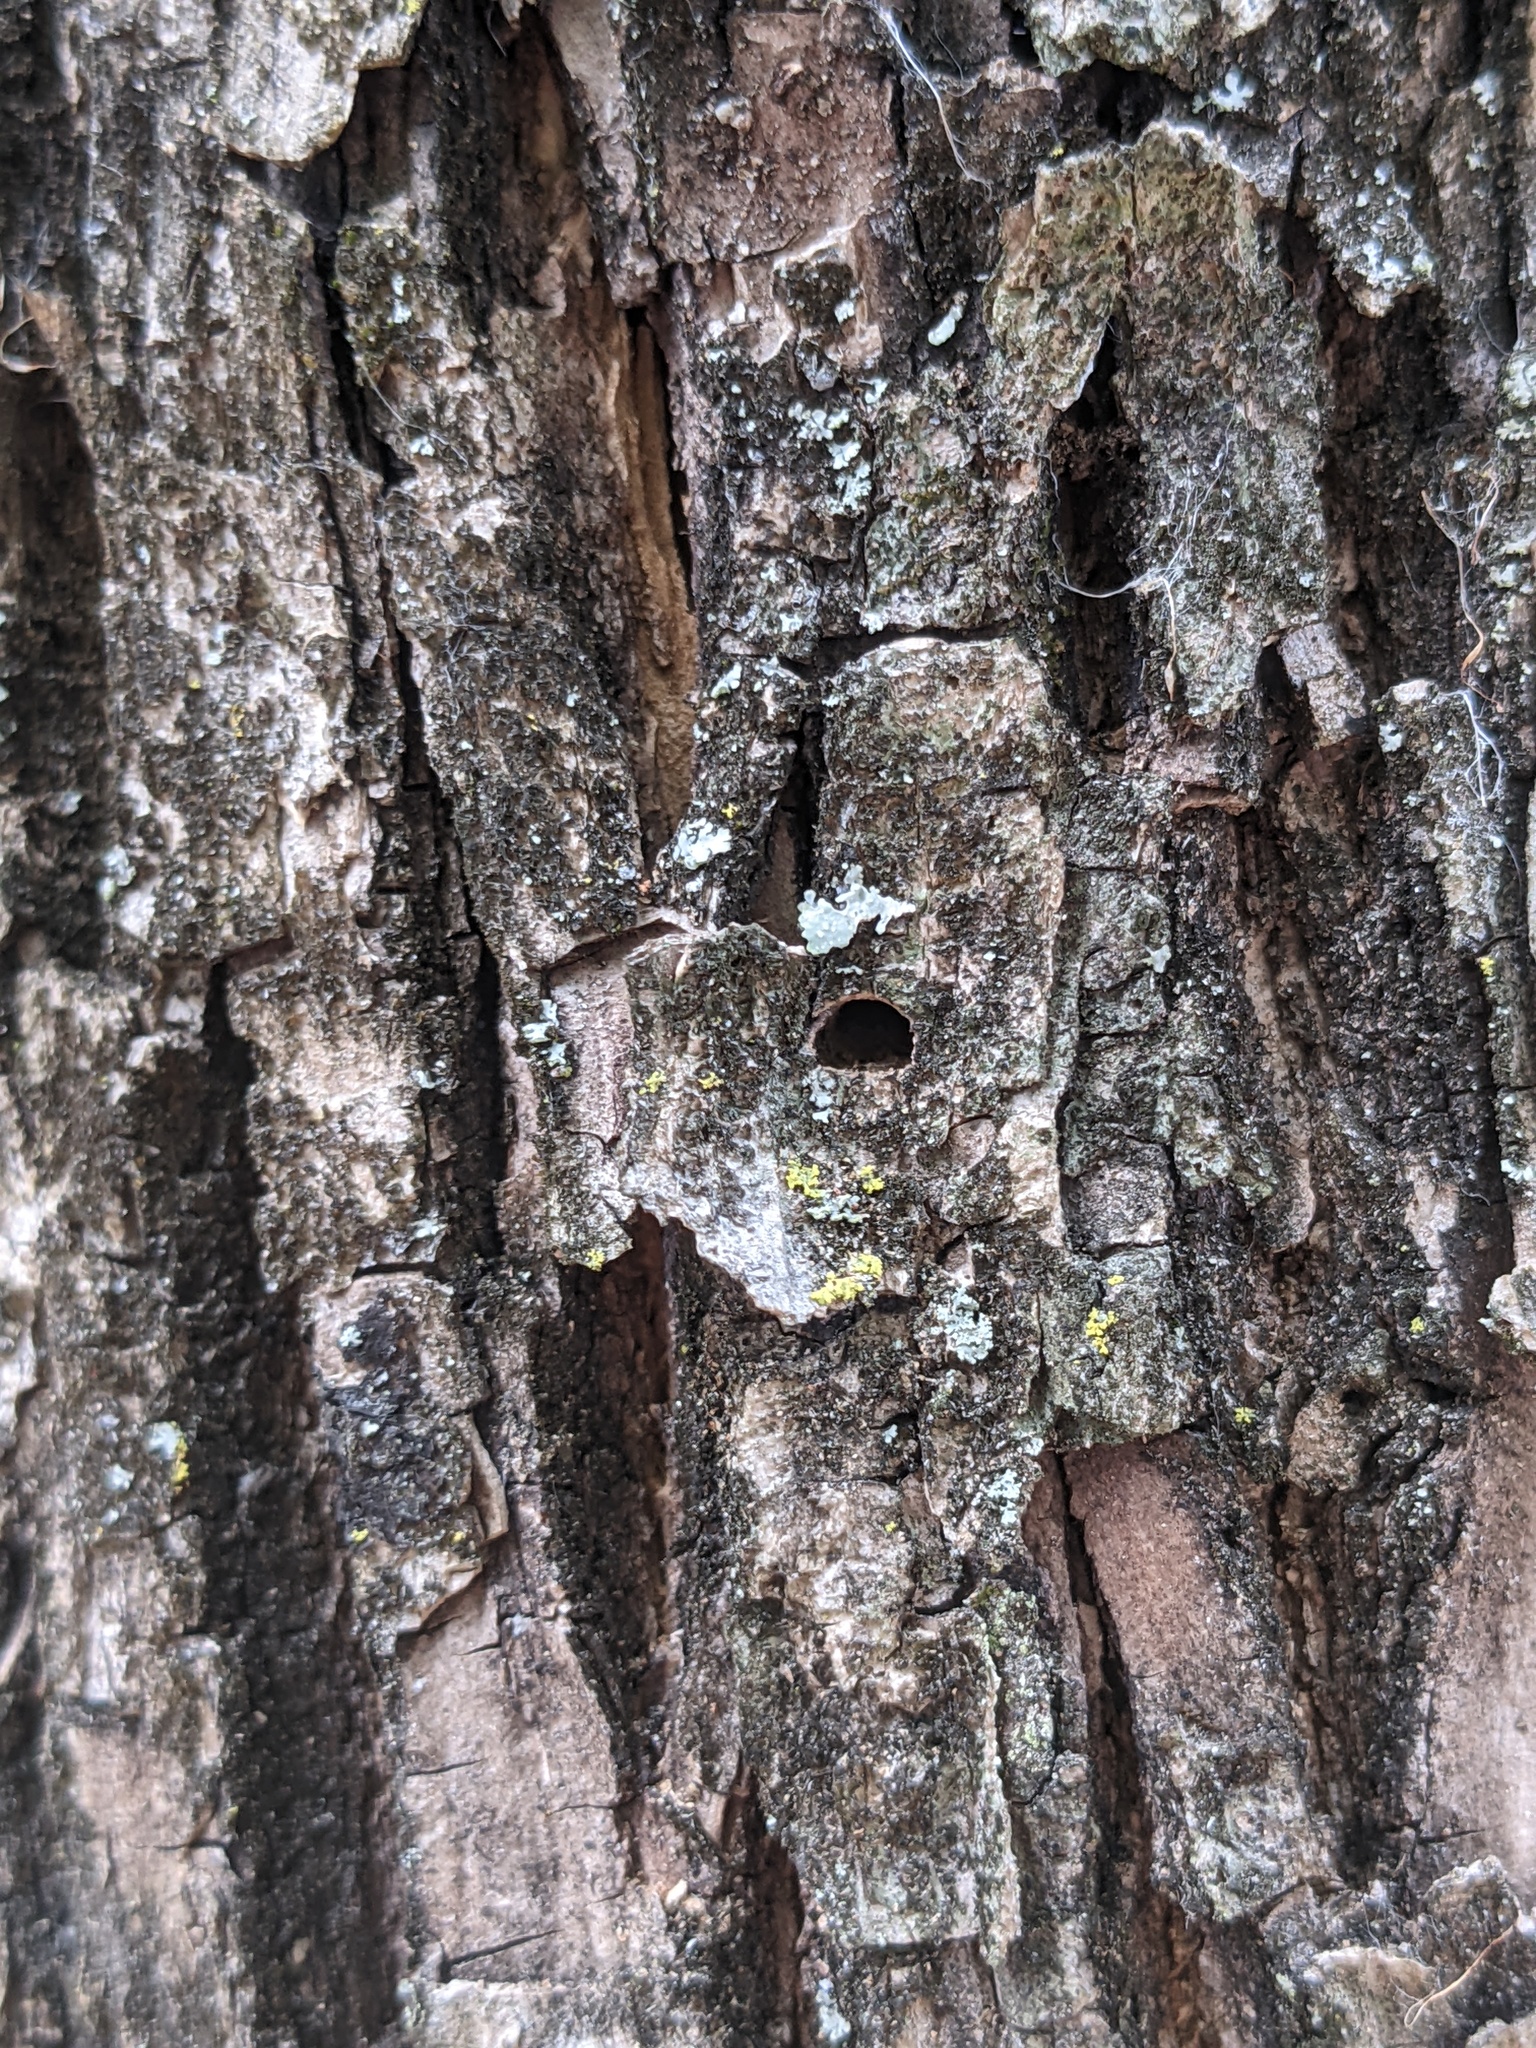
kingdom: Animalia
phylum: Arthropoda
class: Insecta
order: Coleoptera
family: Buprestidae
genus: Agrilus
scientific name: Agrilus planipennis
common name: Emerald ash borer
